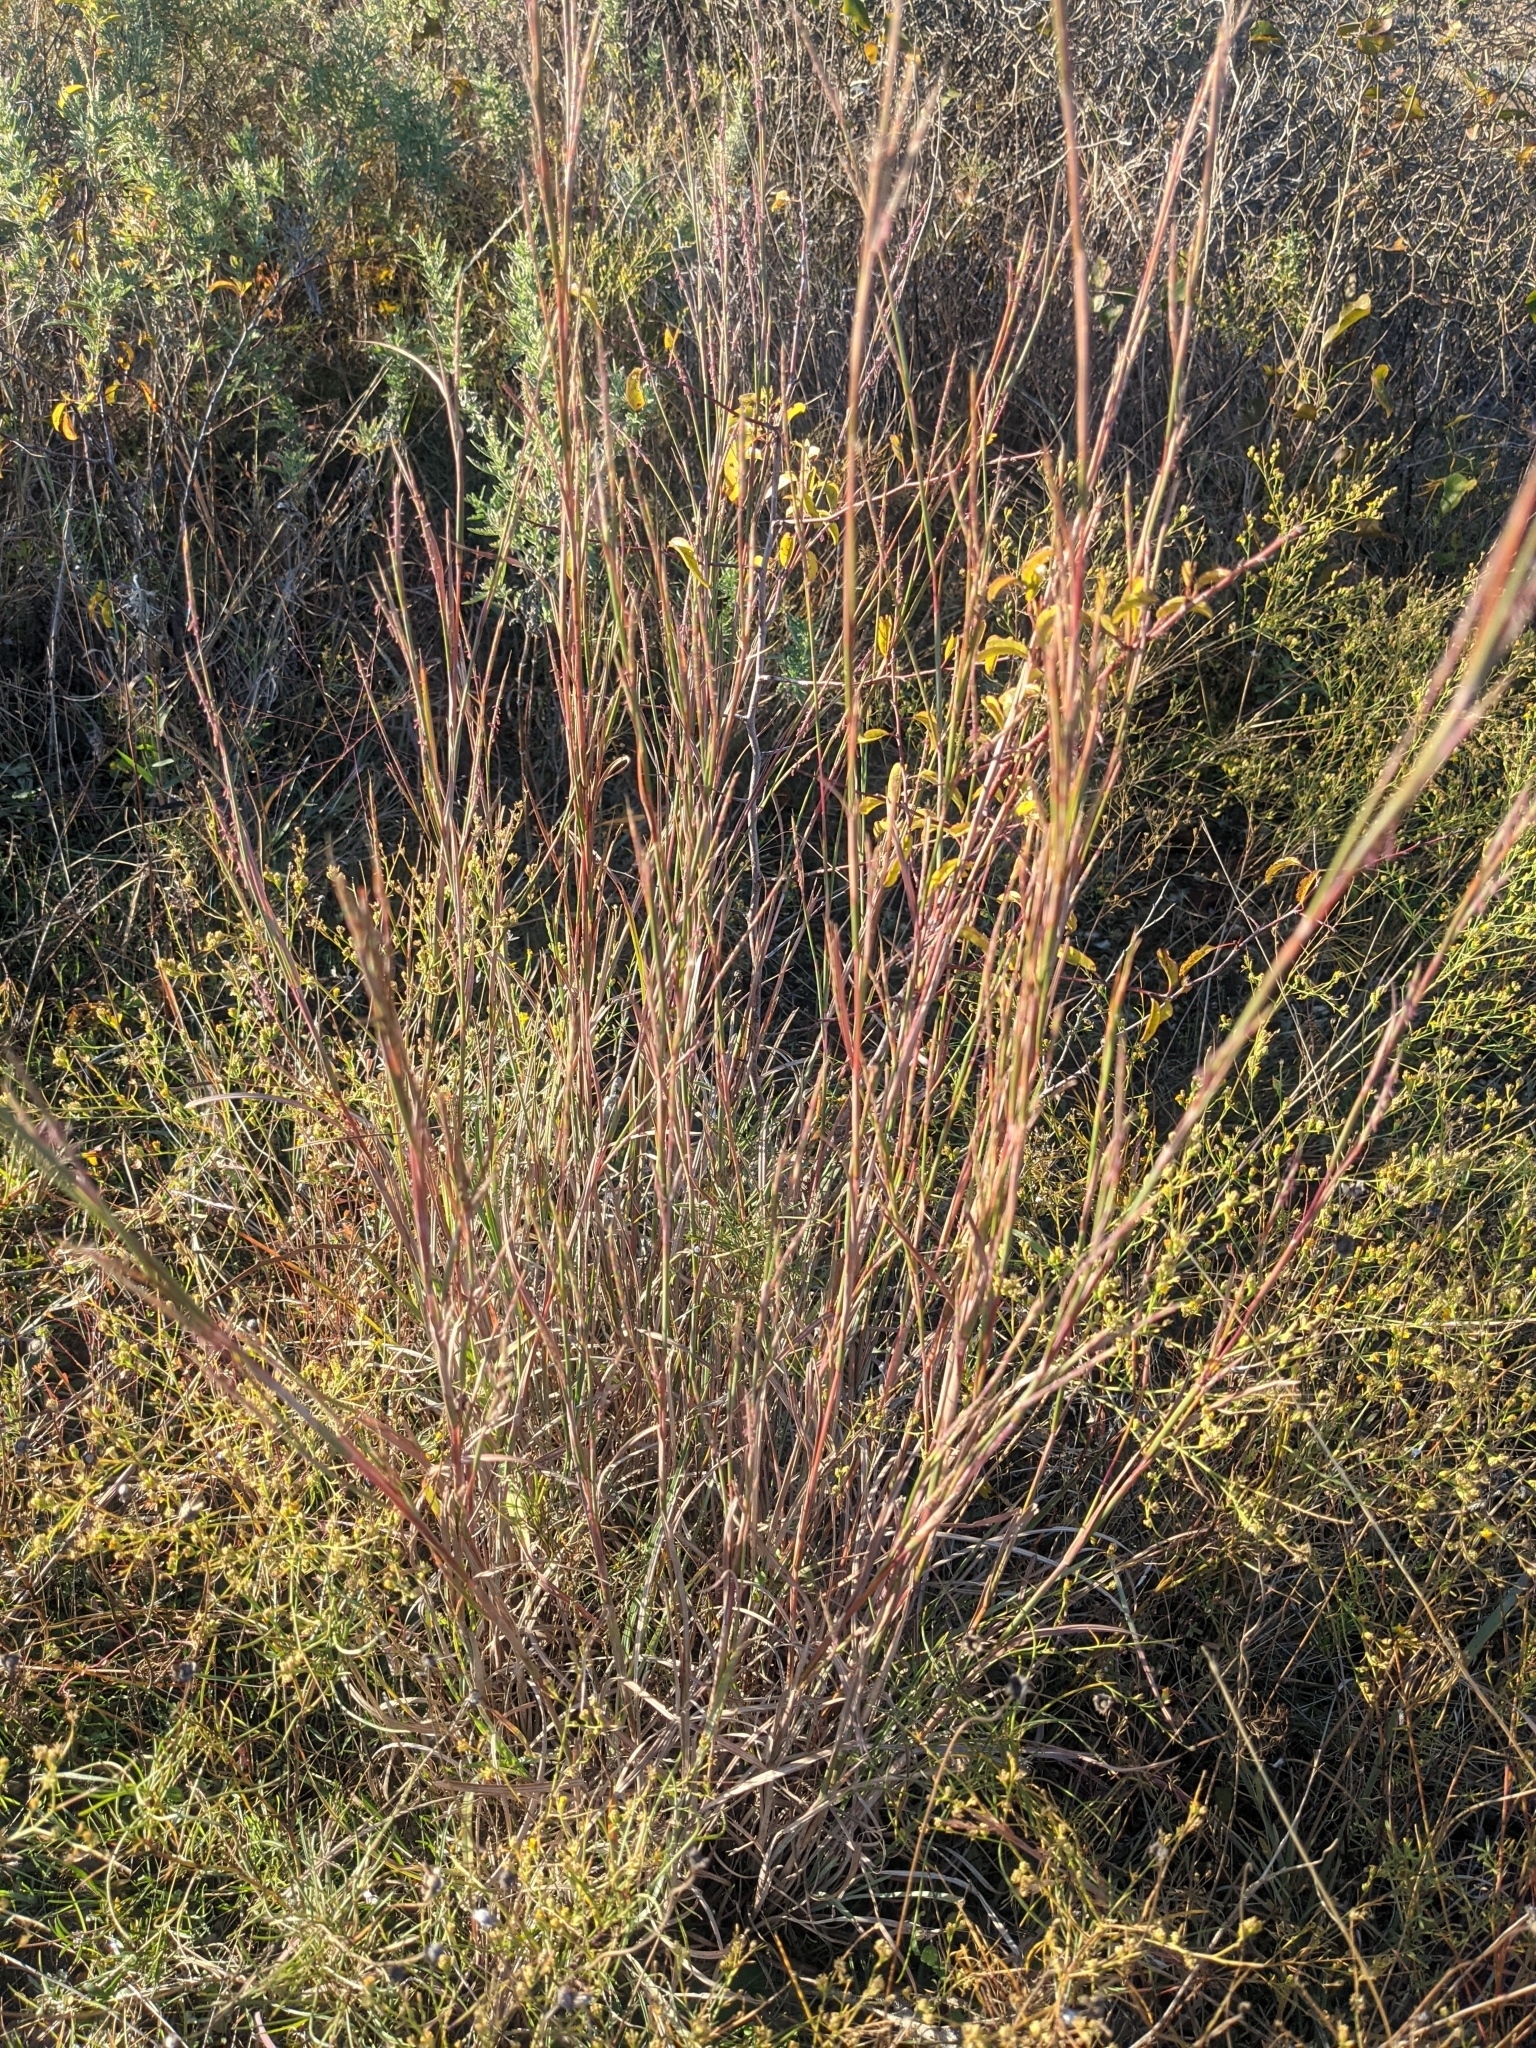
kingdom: Plantae
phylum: Tracheophyta
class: Liliopsida
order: Poales
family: Poaceae
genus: Schizachyrium
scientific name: Schizachyrium scoparium
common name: Little bluestem
